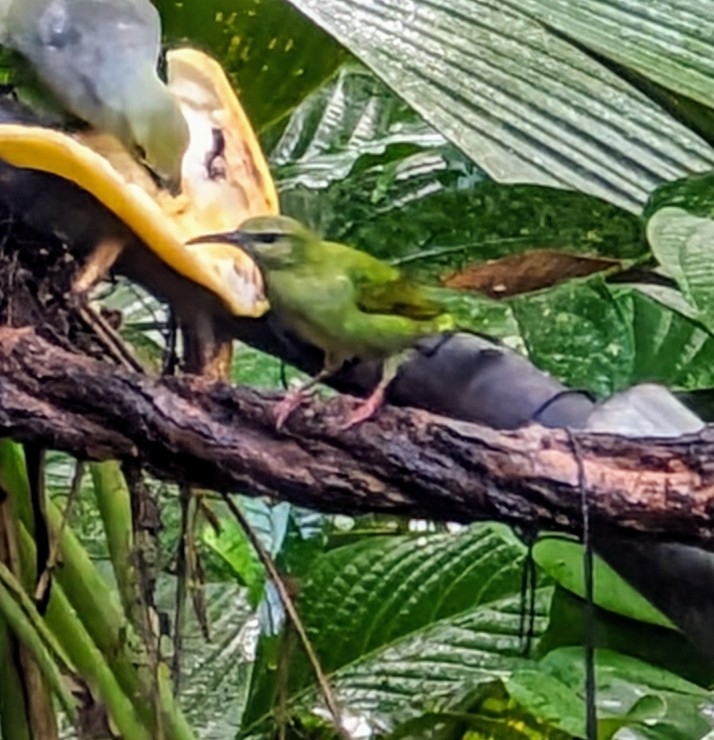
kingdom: Animalia
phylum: Chordata
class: Aves
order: Passeriformes
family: Thraupidae
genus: Cyanerpes
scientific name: Cyanerpes cyaneus
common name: Red-legged honeycreeper
